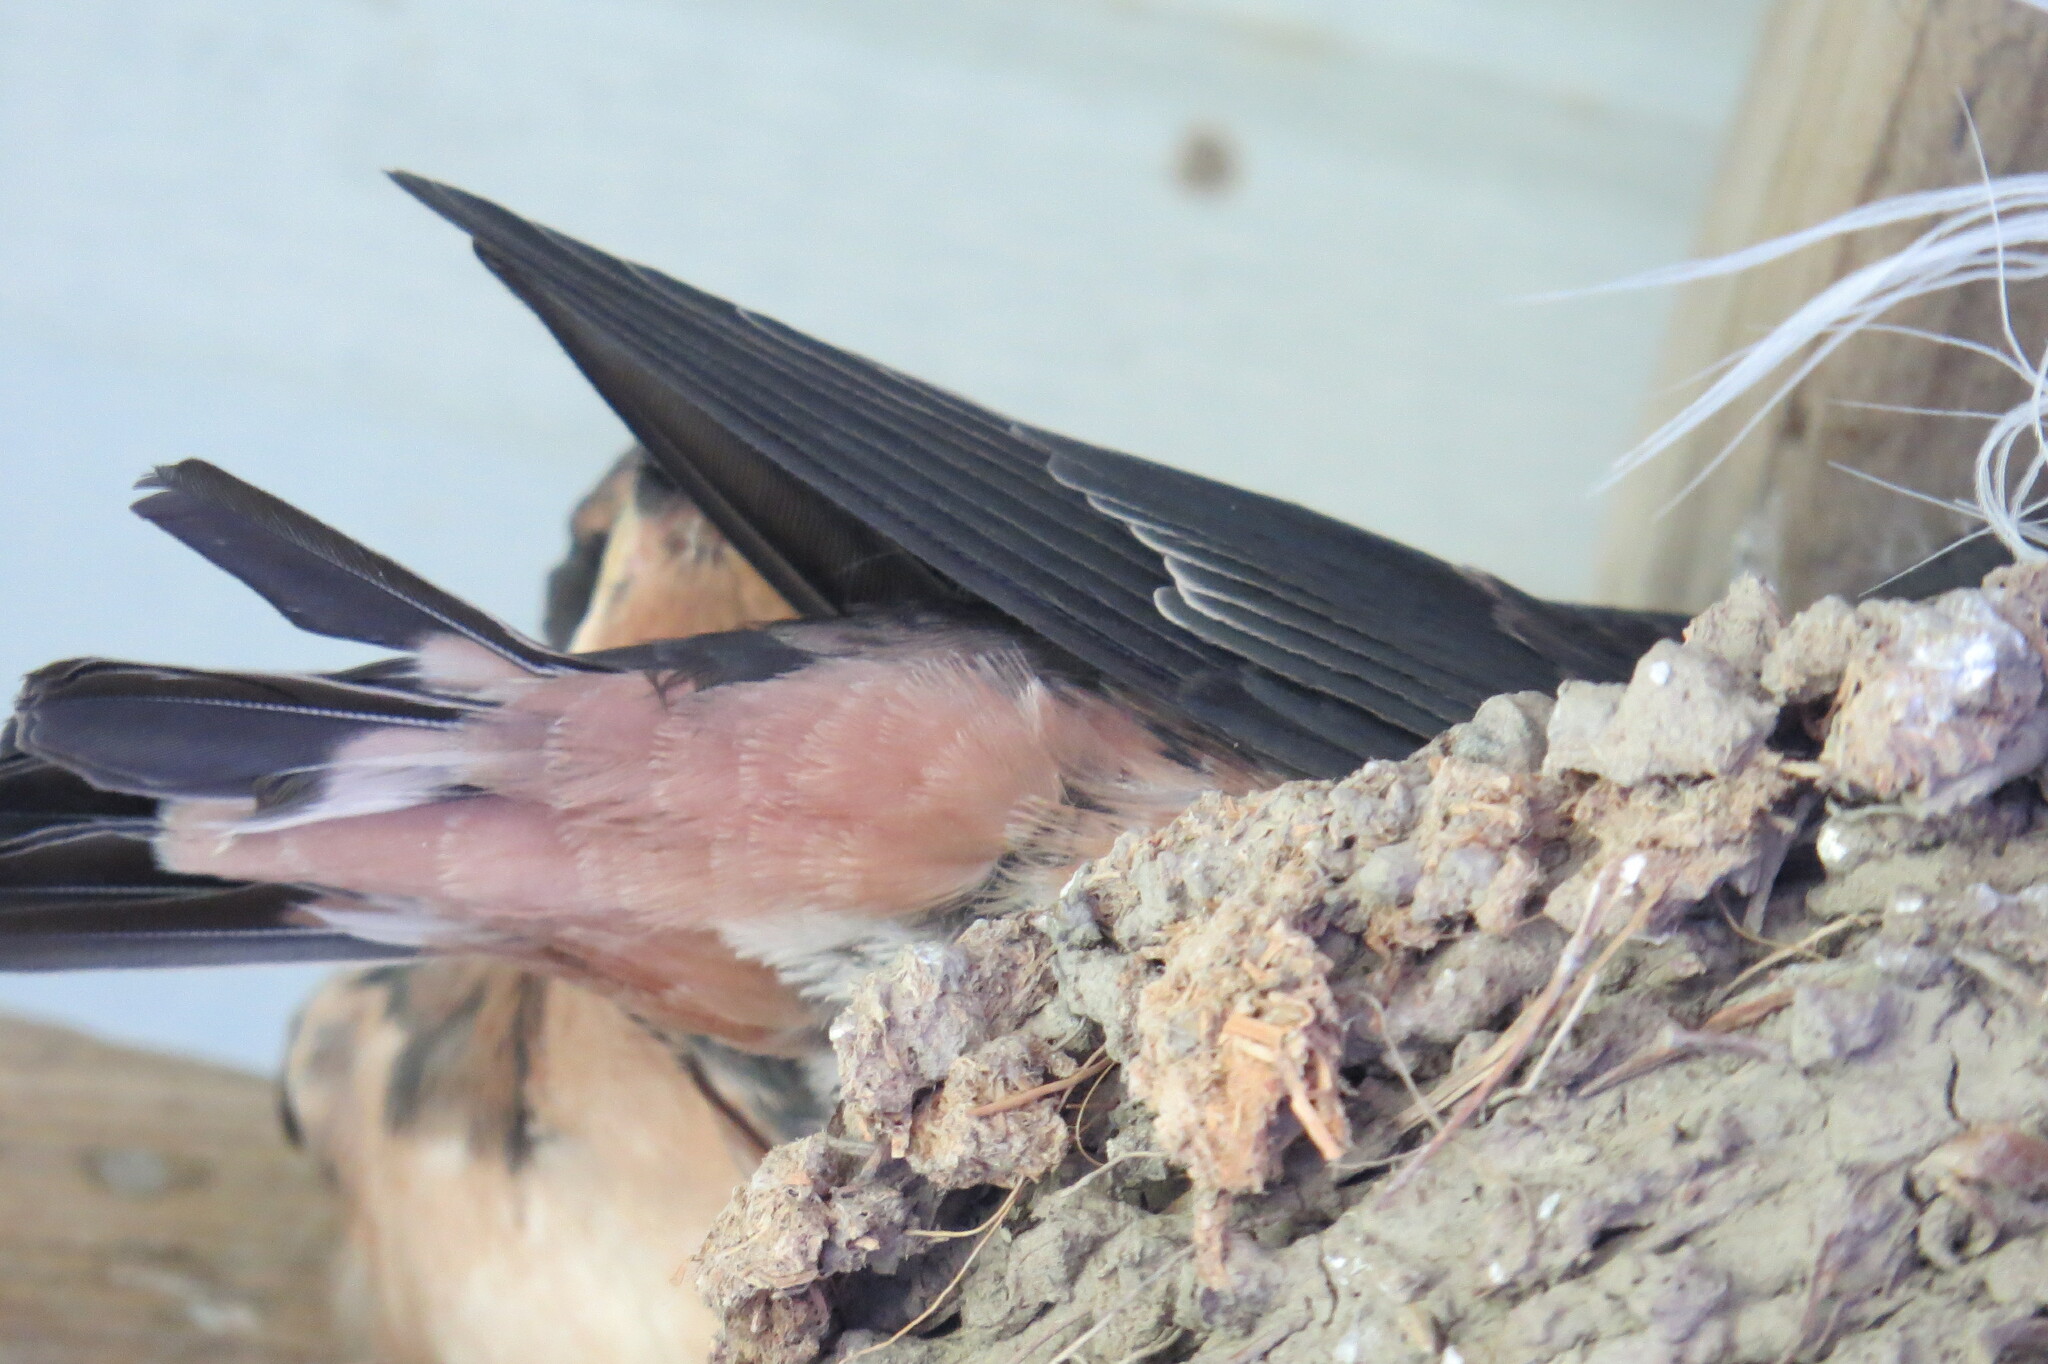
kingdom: Animalia
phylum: Chordata
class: Aves
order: Passeriformes
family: Hirundinidae
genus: Hirundo
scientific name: Hirundo rustica
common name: Barn swallow
